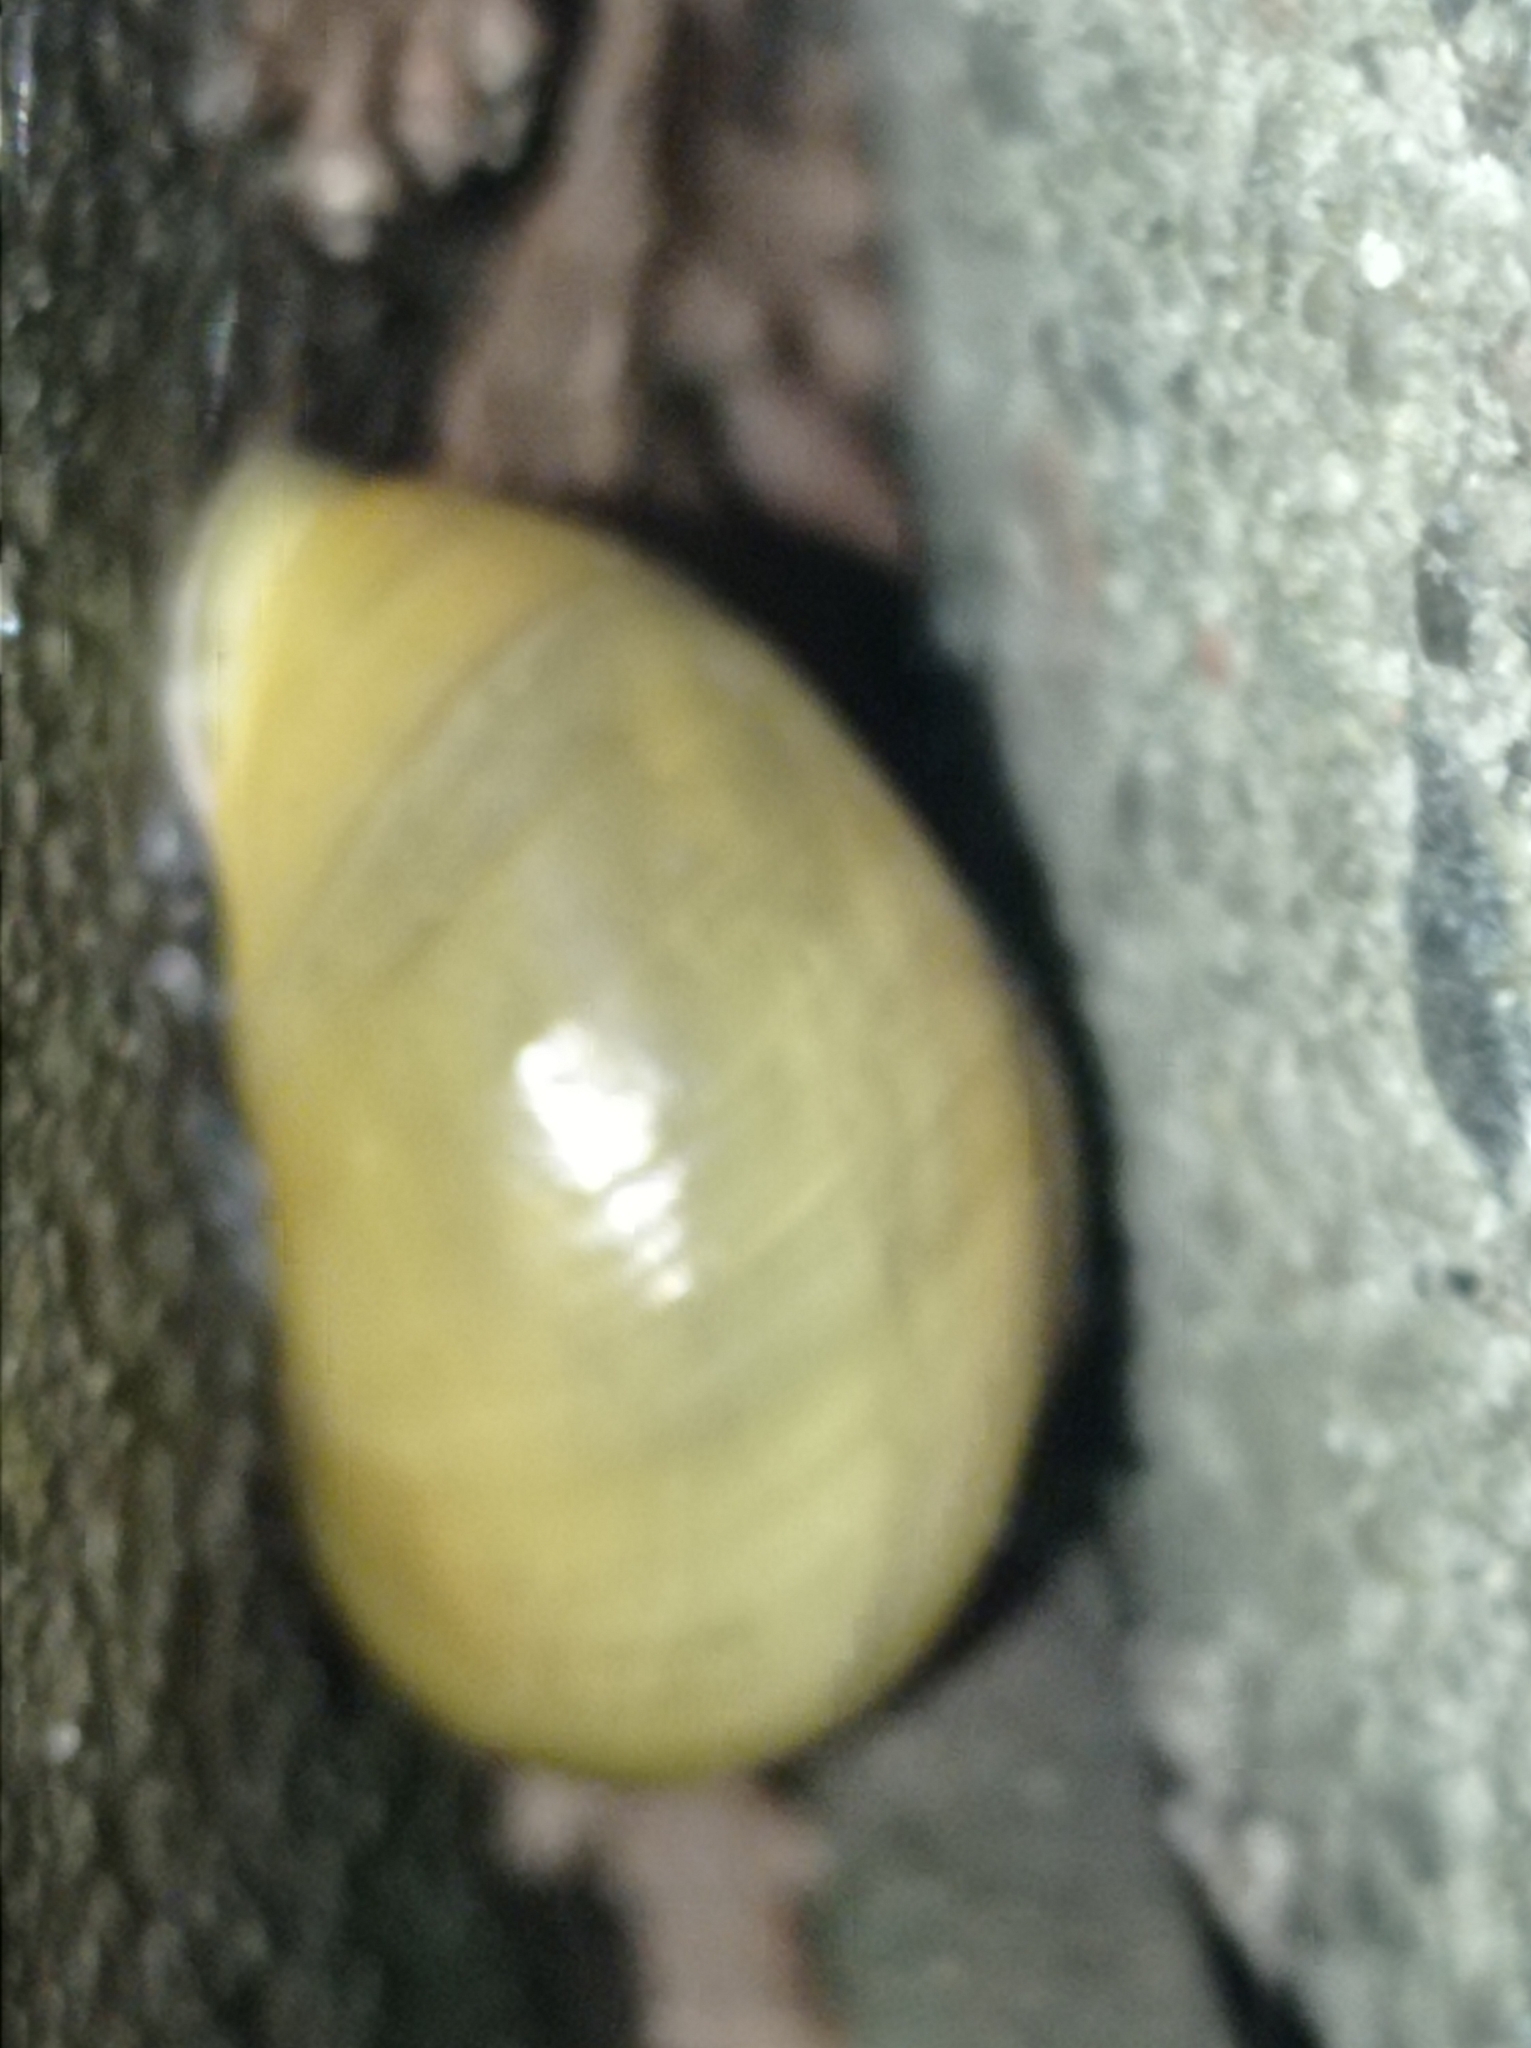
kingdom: Animalia
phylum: Mollusca
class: Gastropoda
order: Stylommatophora
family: Helicidae
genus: Cepaea
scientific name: Cepaea hortensis
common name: White-lip gardensnail
